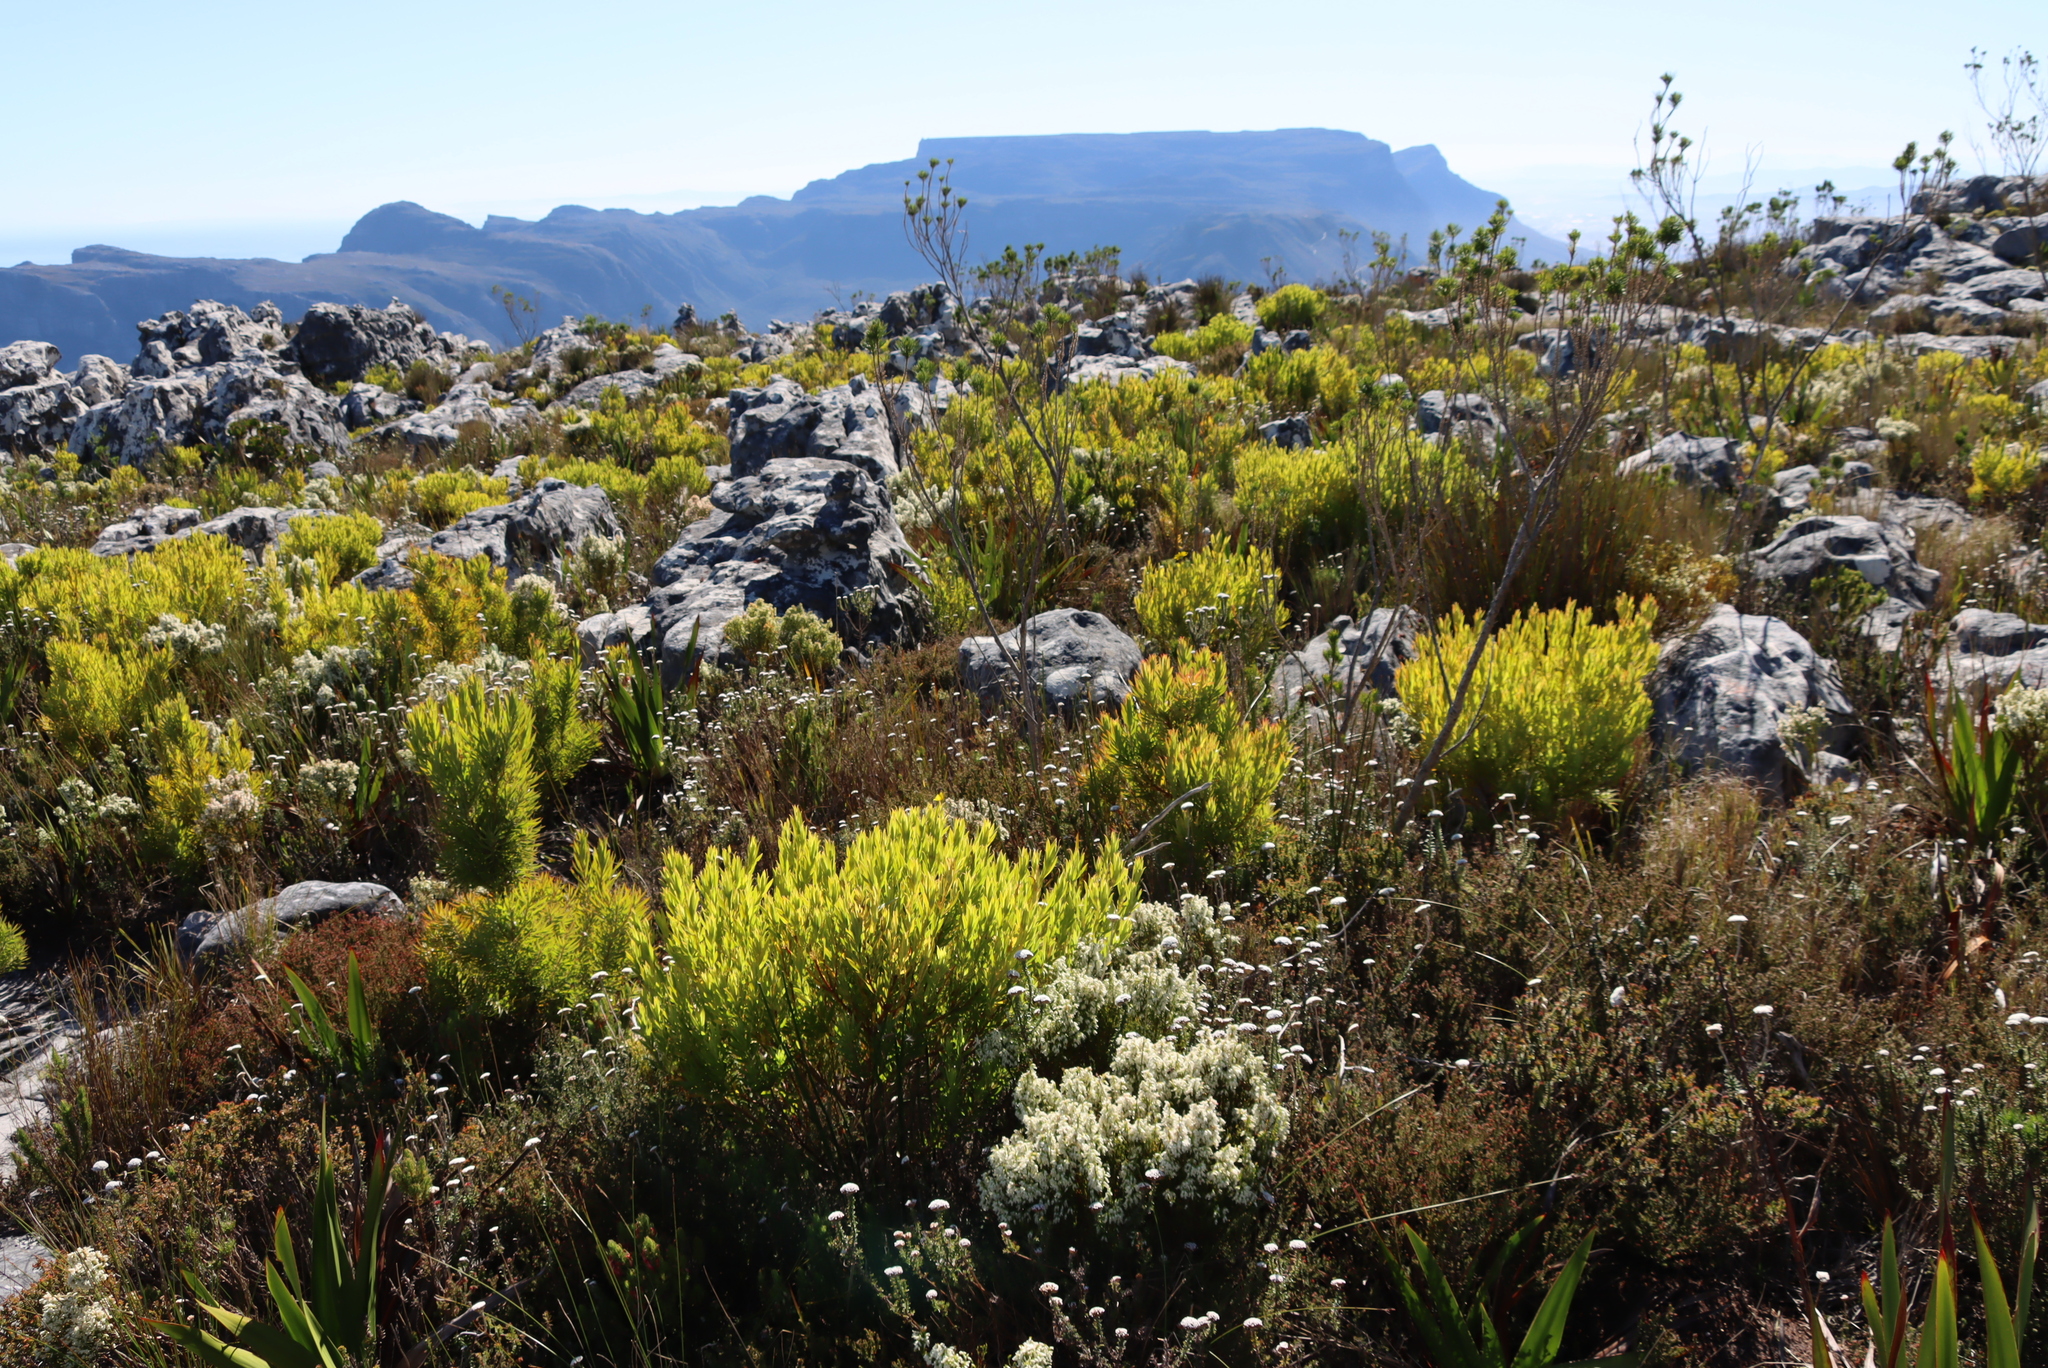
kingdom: Plantae
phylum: Tracheophyta
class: Magnoliopsida
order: Proteales
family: Proteaceae
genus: Leucadendron
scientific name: Leucadendron xanthoconus
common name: Sickle-leaf conebush
